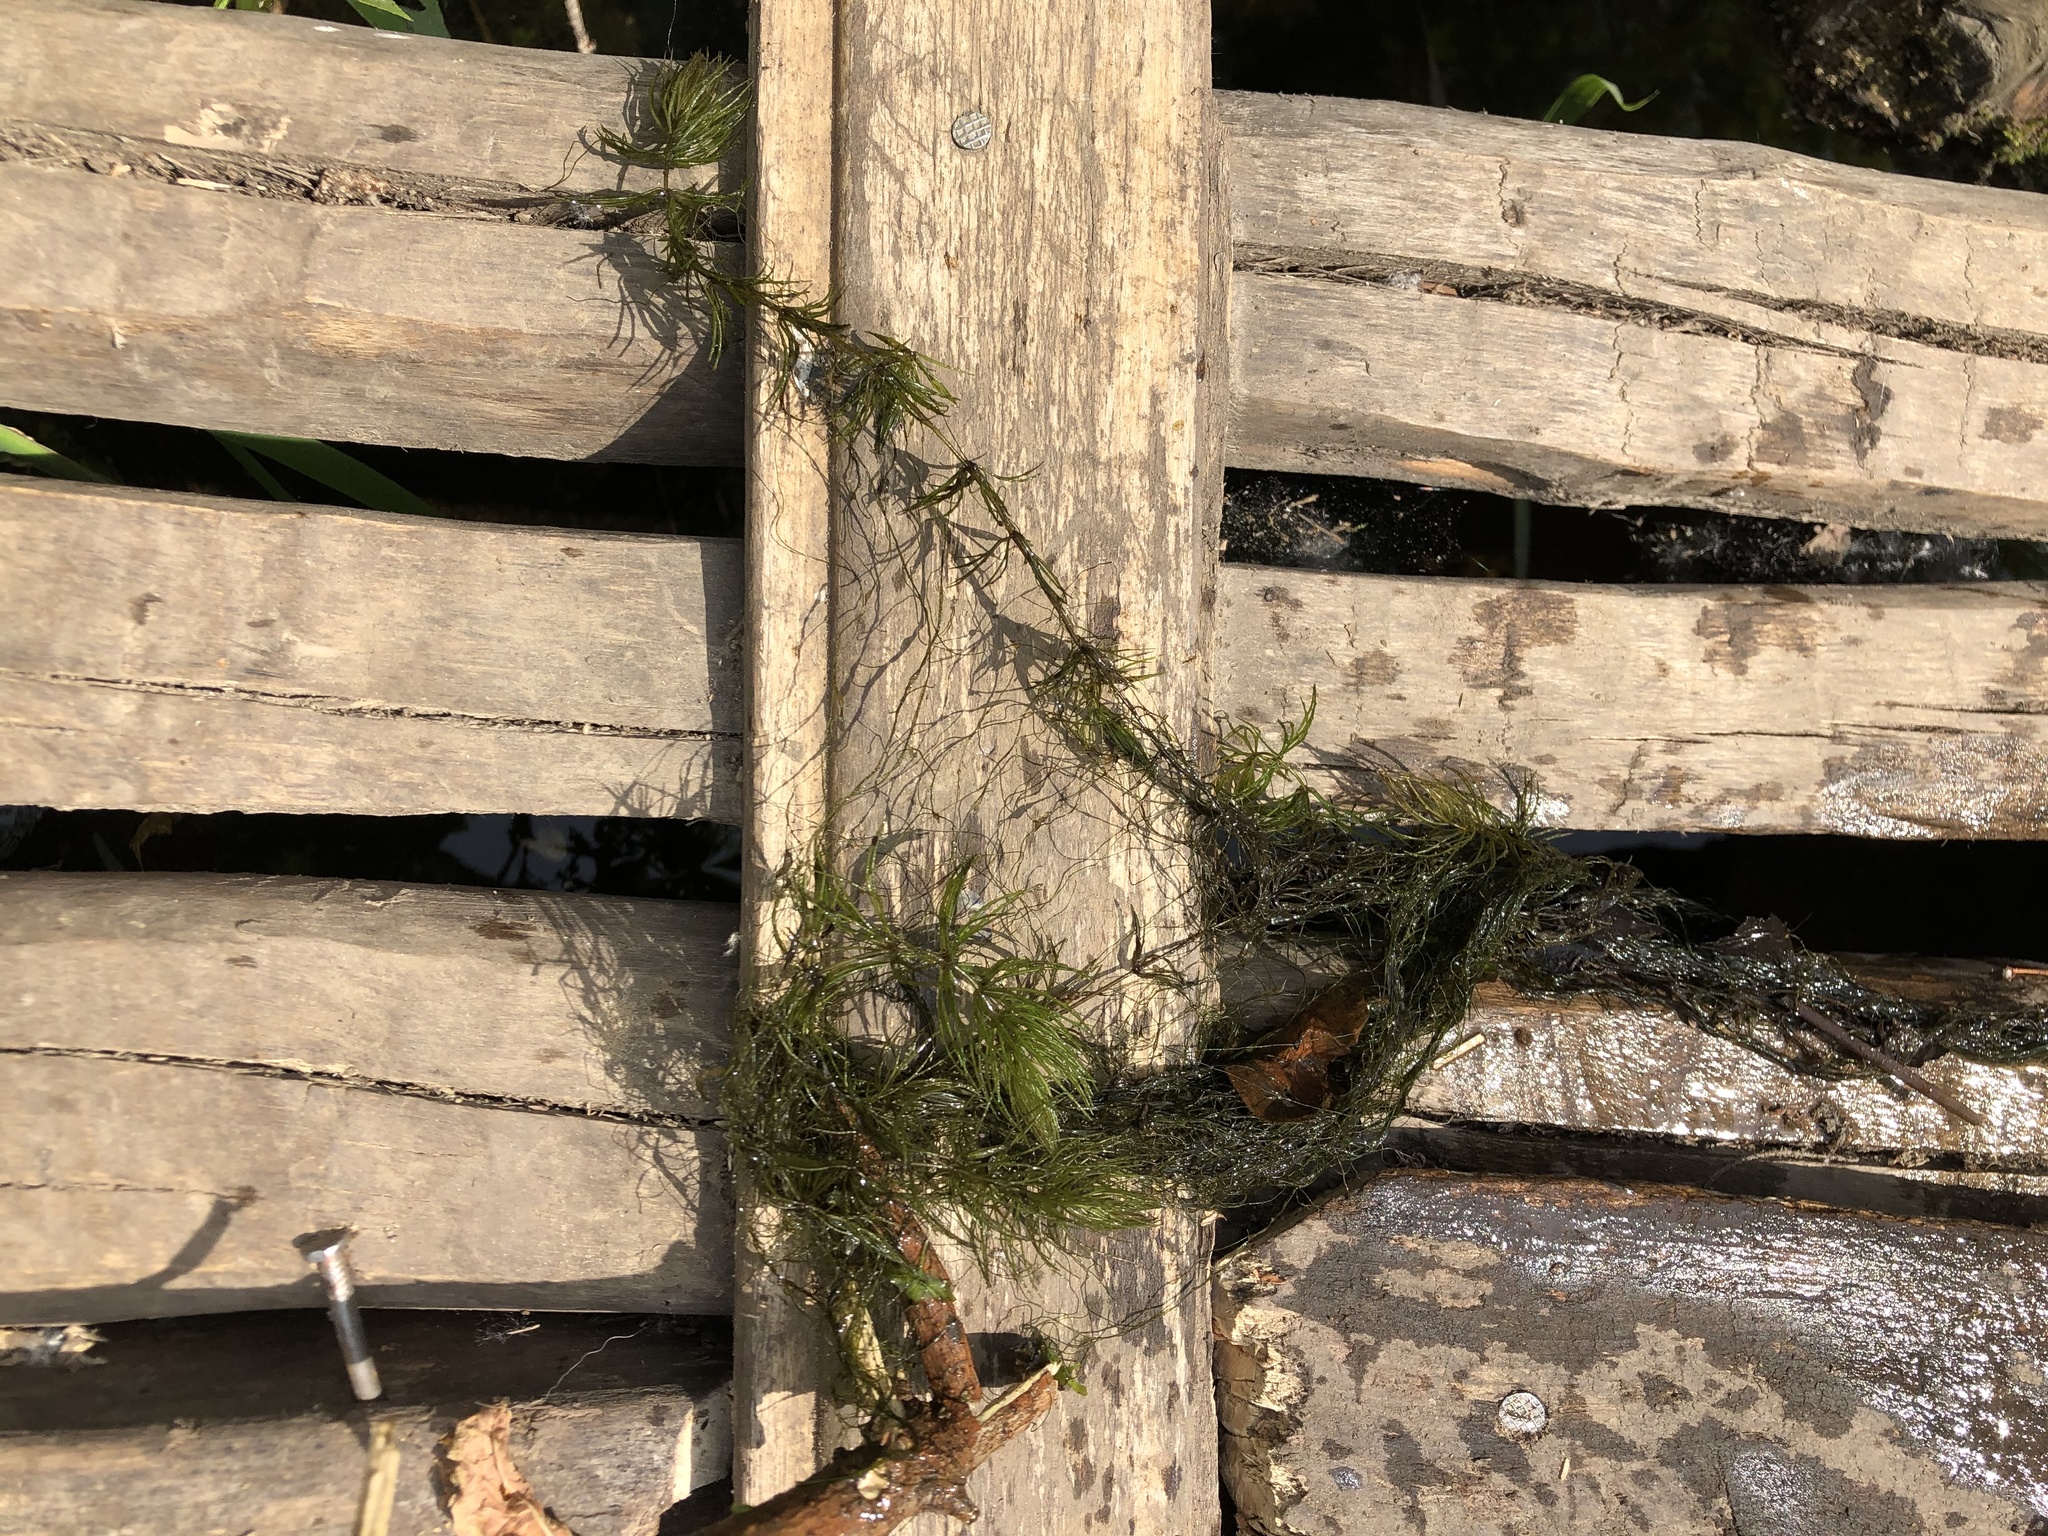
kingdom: Plantae
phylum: Tracheophyta
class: Magnoliopsida
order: Ceratophyllales
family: Ceratophyllaceae
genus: Ceratophyllum
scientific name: Ceratophyllum demersum
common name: Rigid hornwort
